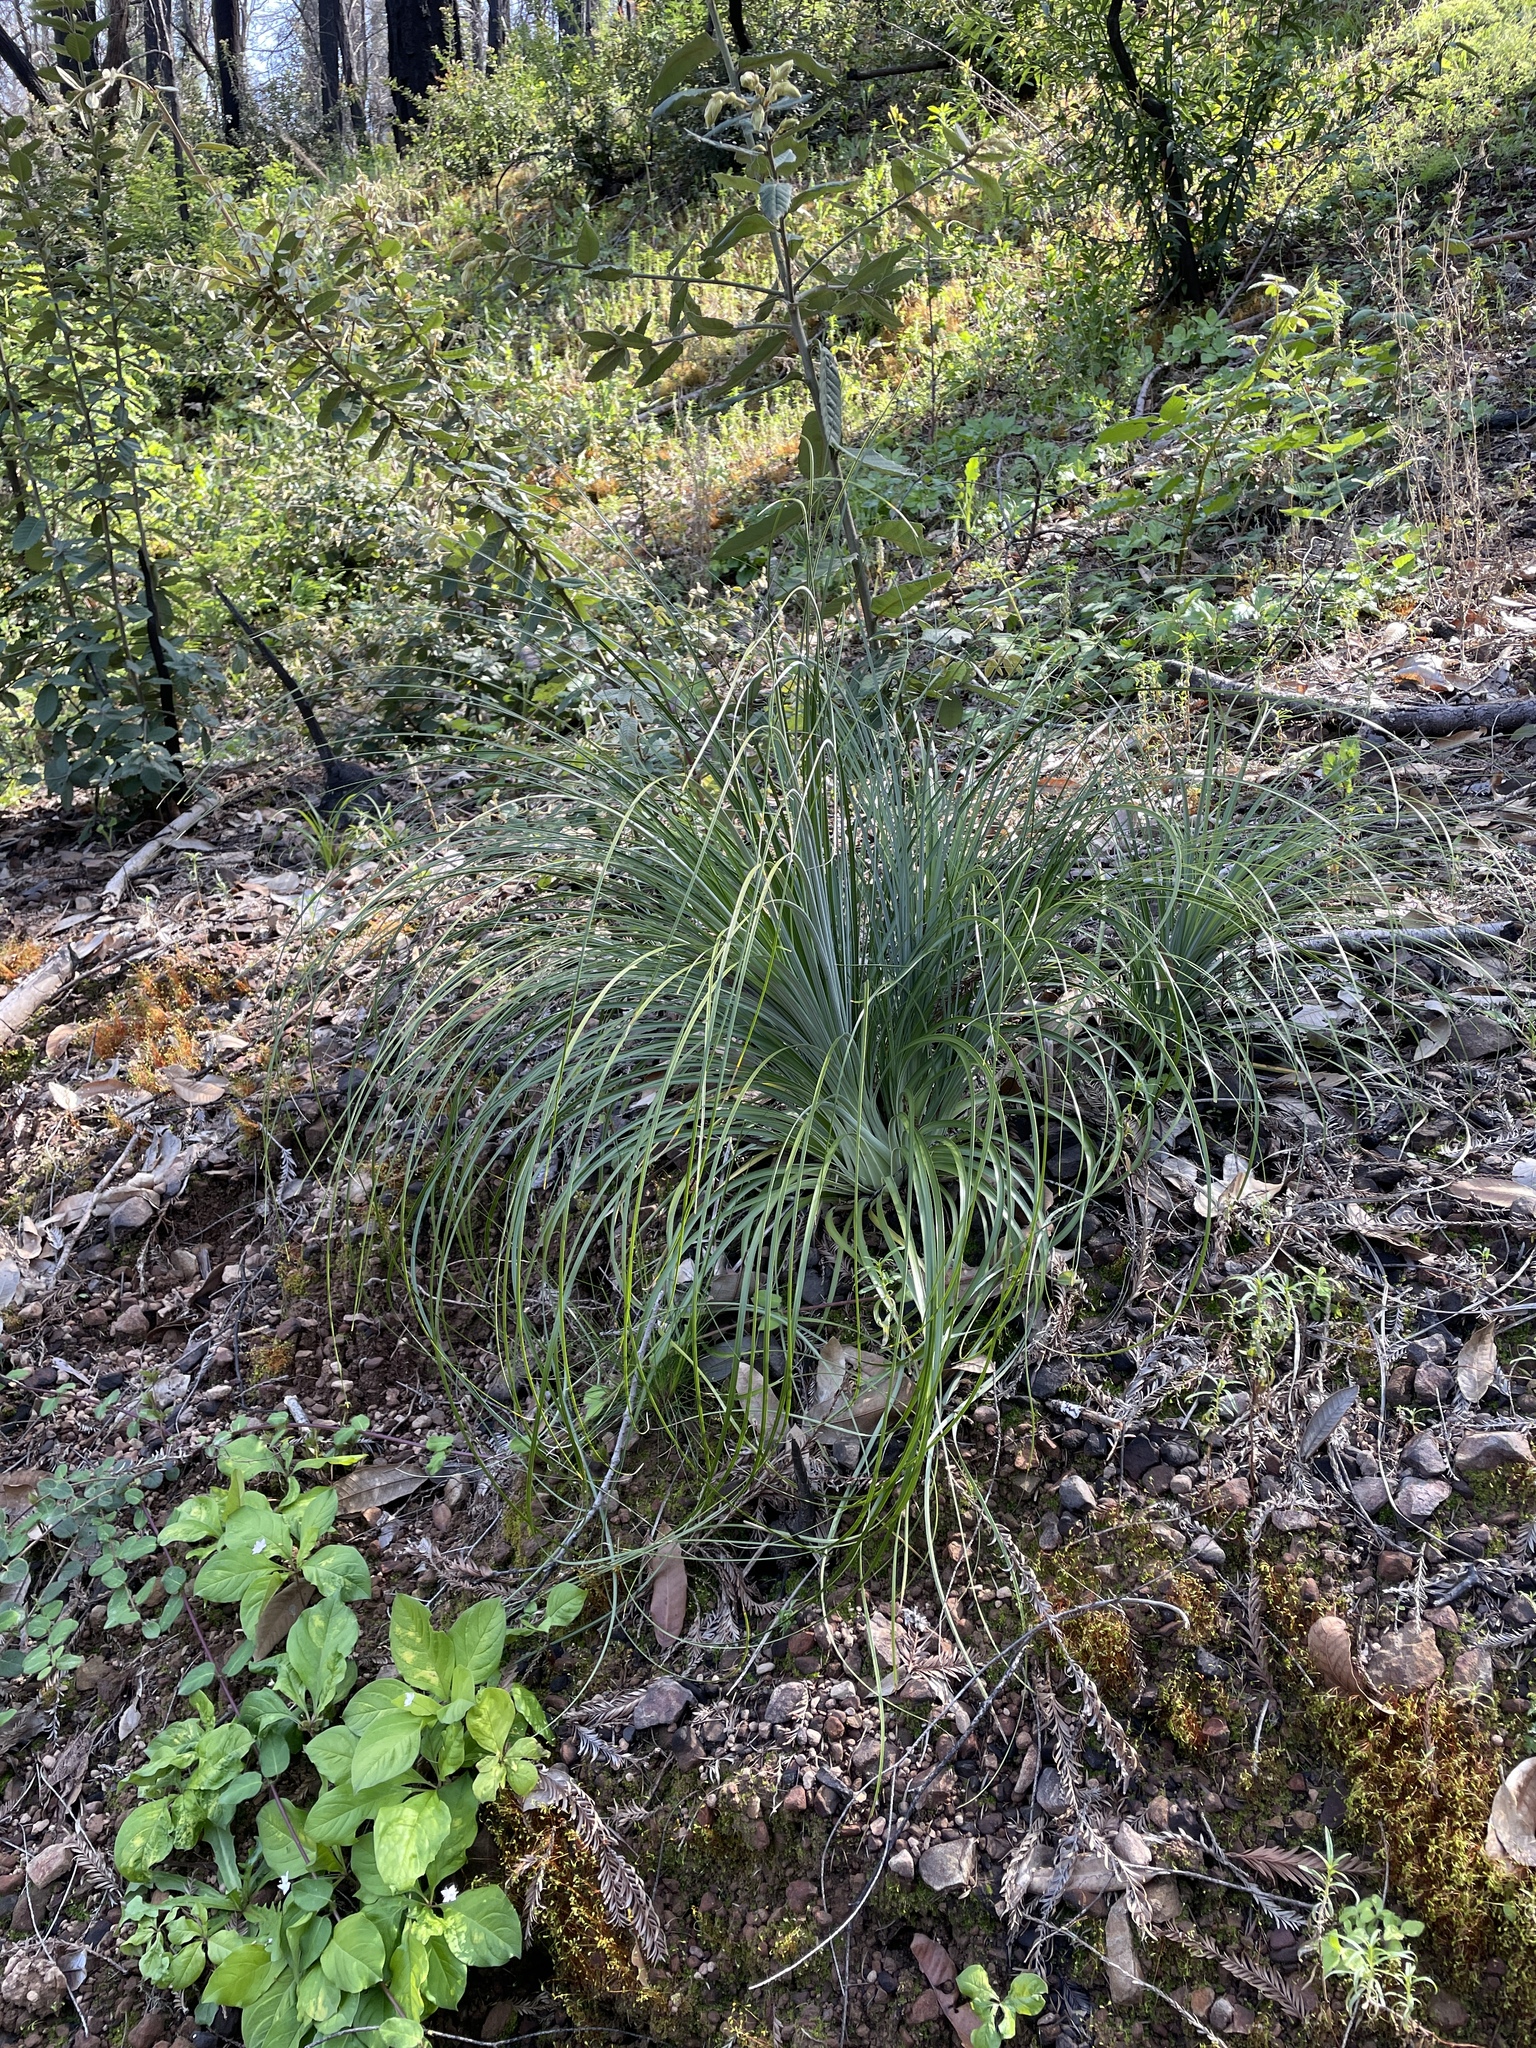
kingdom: Plantae
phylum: Tracheophyta
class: Liliopsida
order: Liliales
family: Melanthiaceae
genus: Xerophyllum
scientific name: Xerophyllum tenax
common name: Bear-grass
